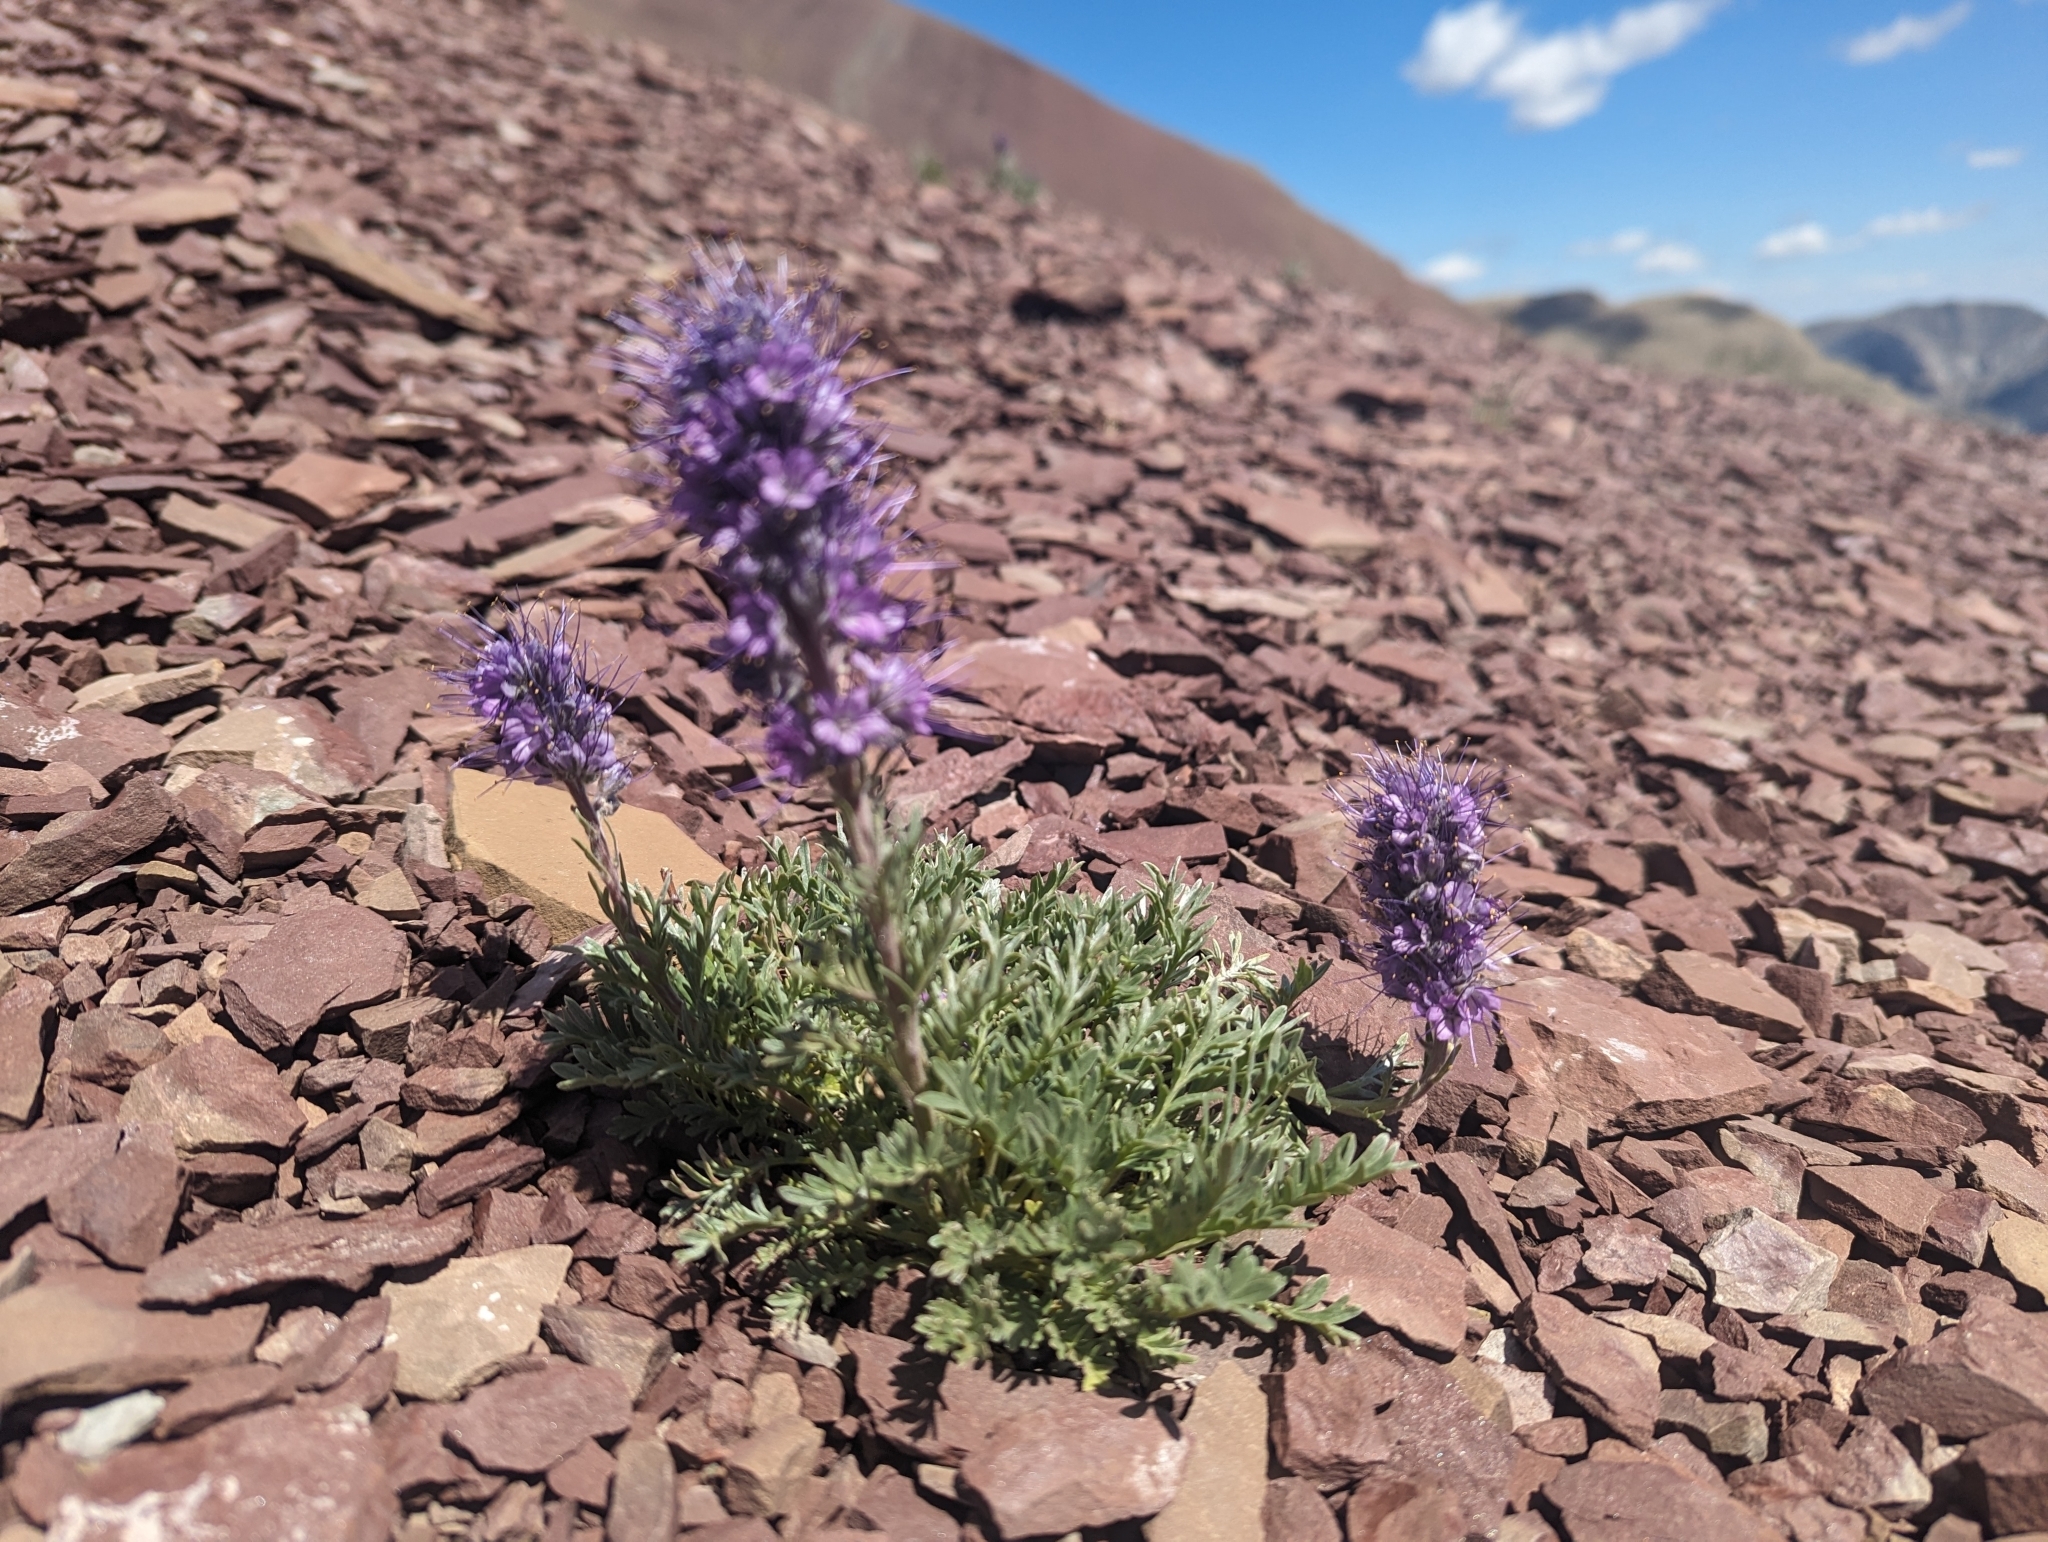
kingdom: Plantae
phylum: Tracheophyta
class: Magnoliopsida
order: Boraginales
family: Hydrophyllaceae
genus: Phacelia
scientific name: Phacelia sericea
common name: Silky phacelia
